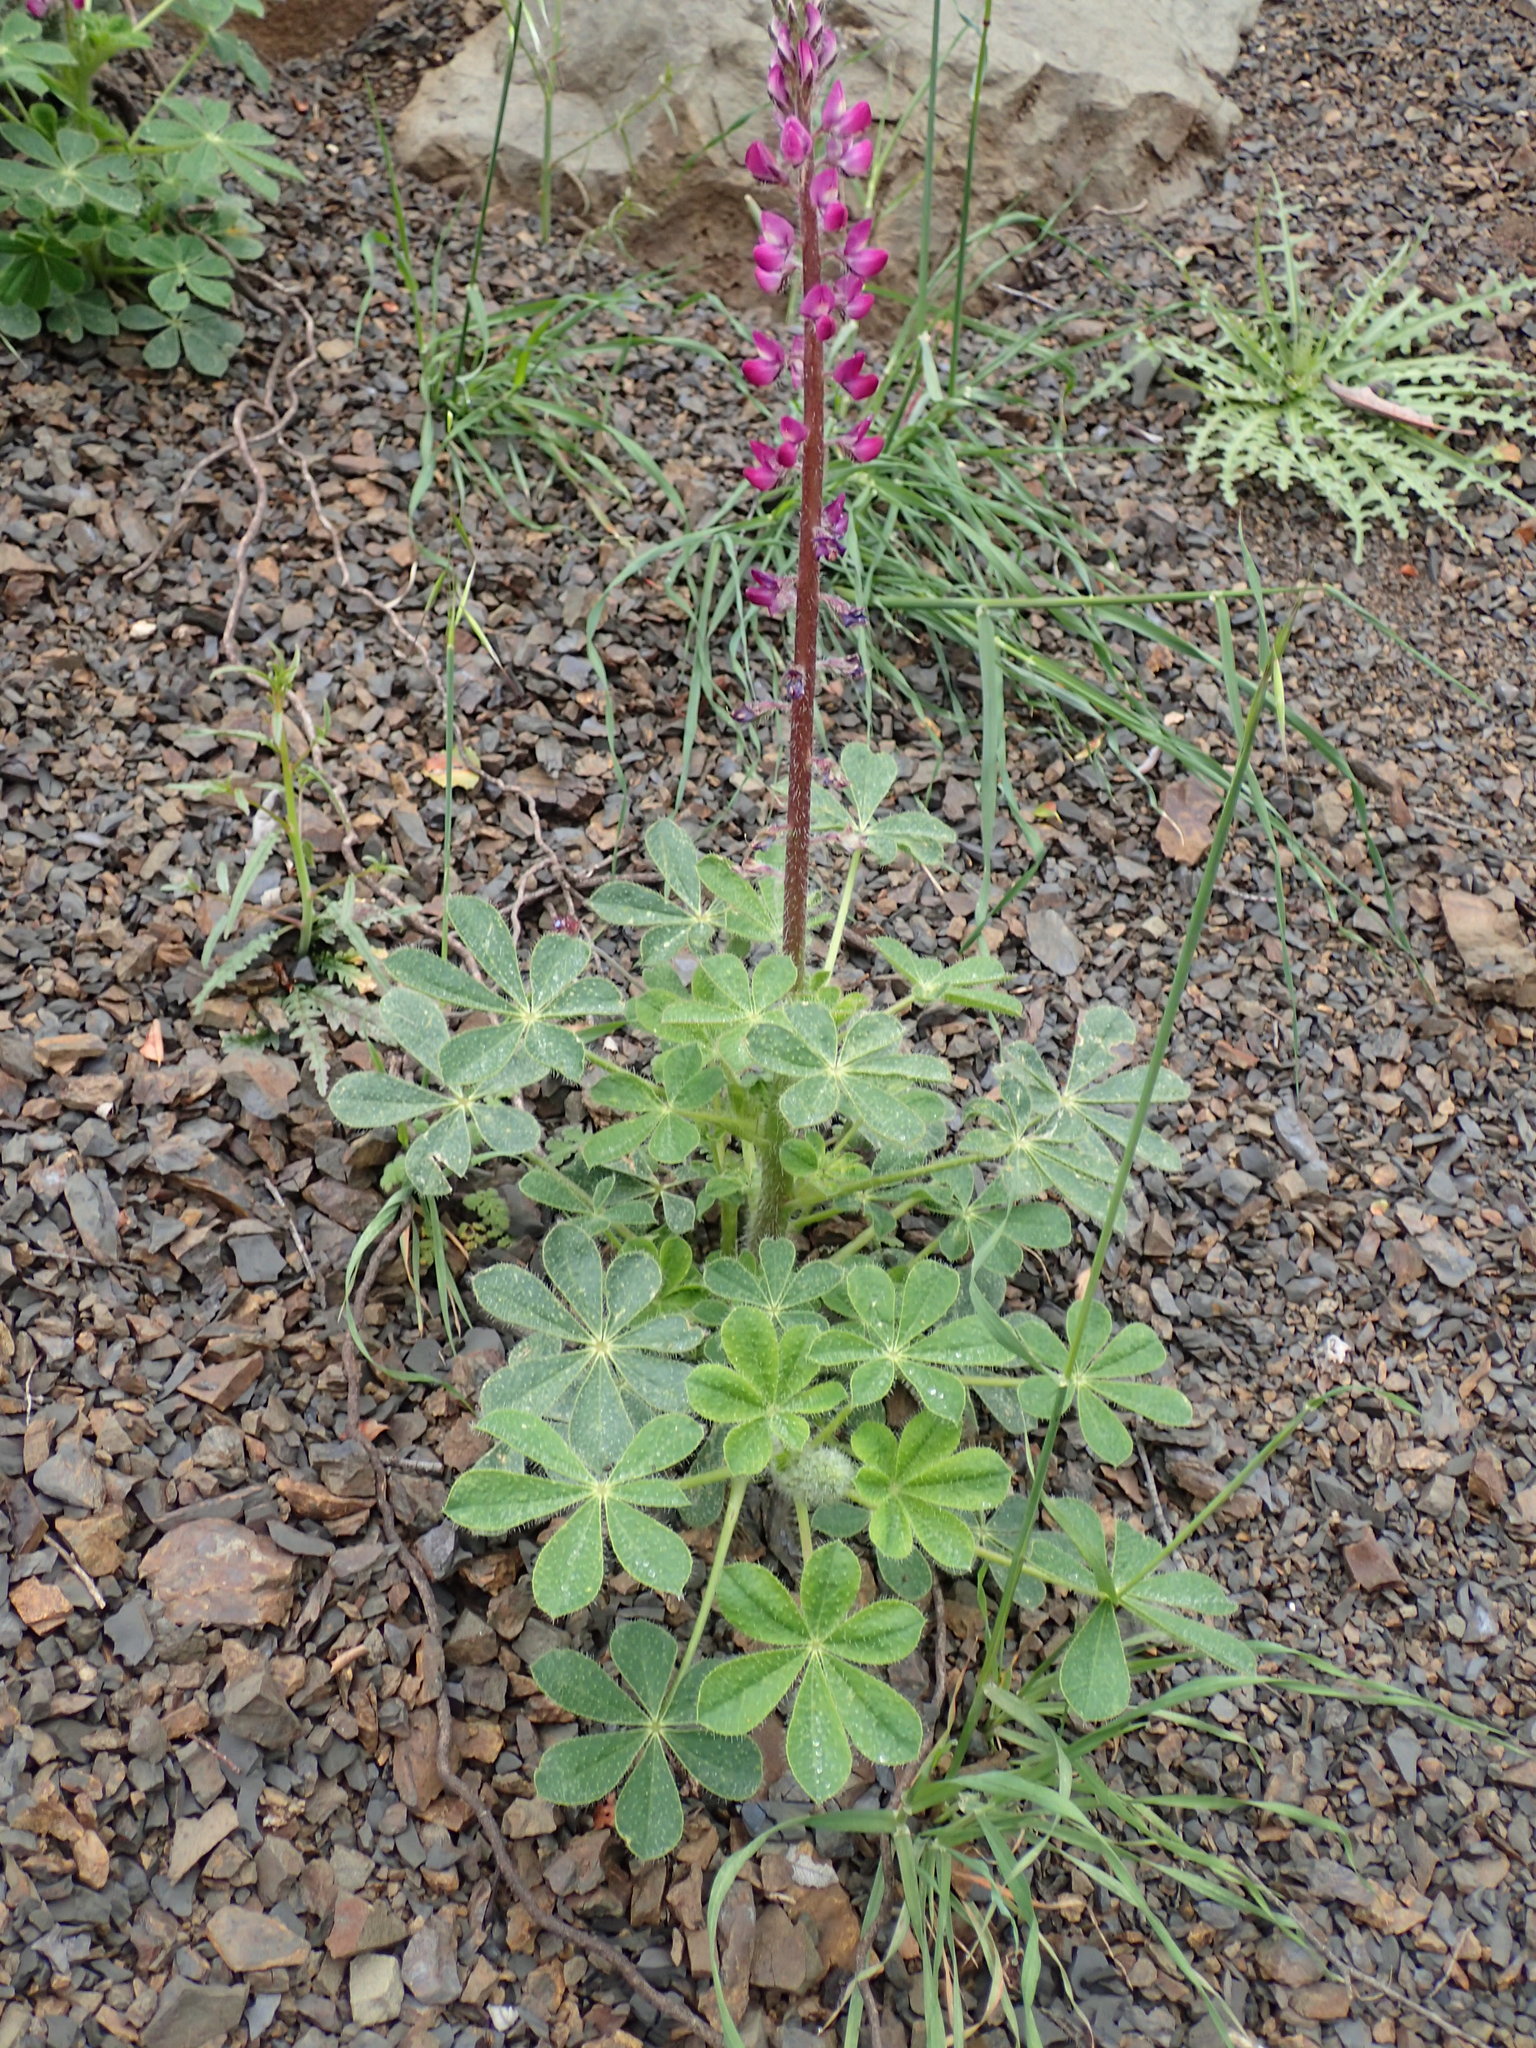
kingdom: Plantae
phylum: Tracheophyta
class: Magnoliopsida
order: Fabales
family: Fabaceae
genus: Lupinus
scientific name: Lupinus hirsutissimus
